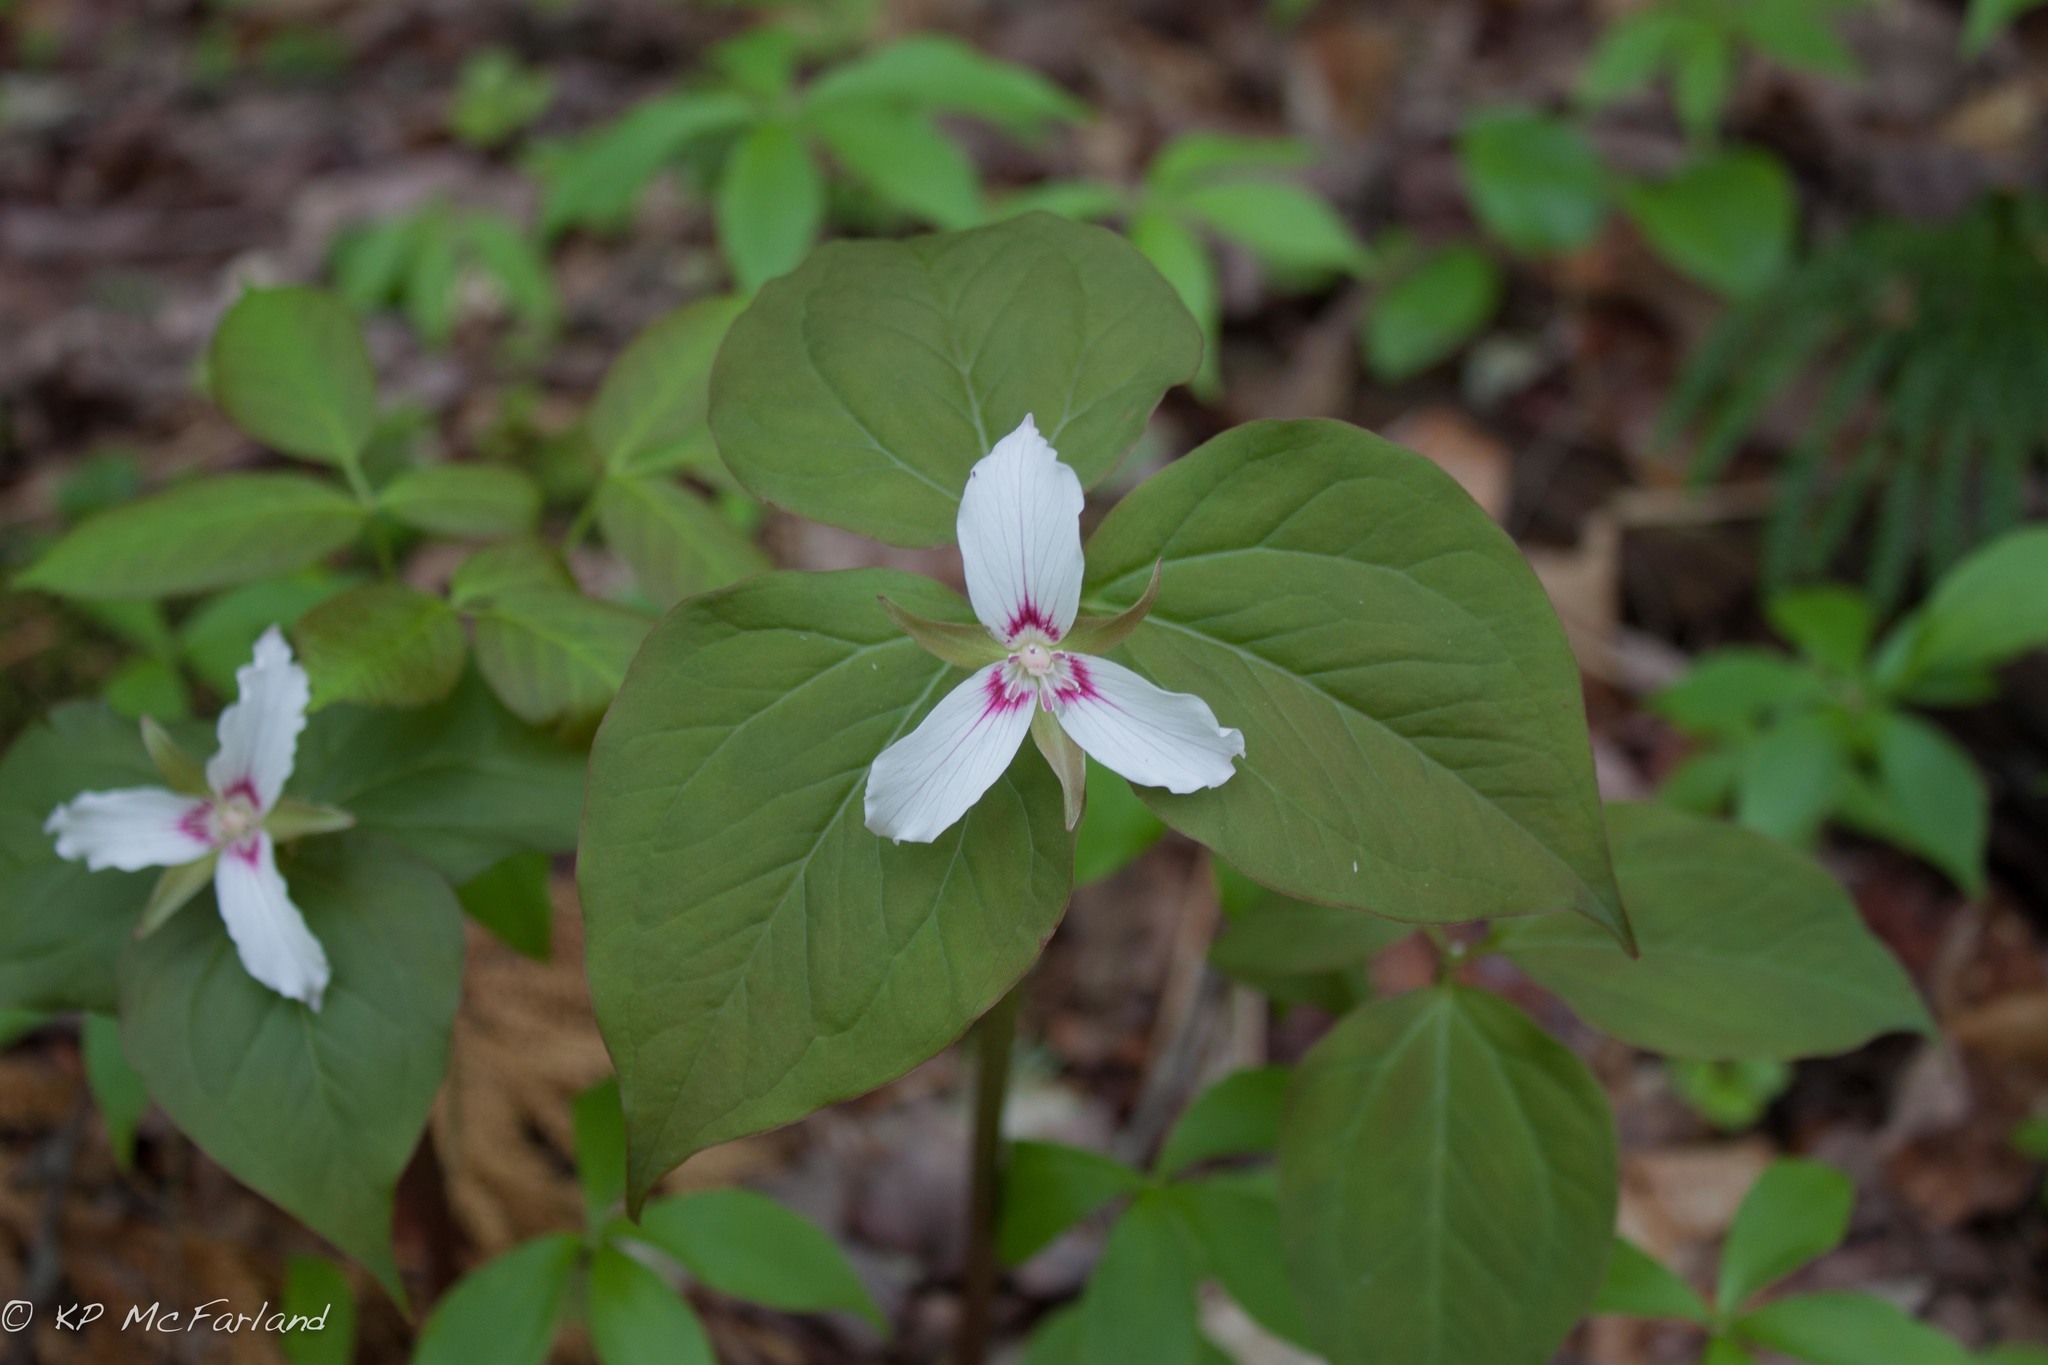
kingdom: Plantae
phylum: Tracheophyta
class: Liliopsida
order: Liliales
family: Melanthiaceae
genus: Trillium
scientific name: Trillium undulatum
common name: Paint trillium
